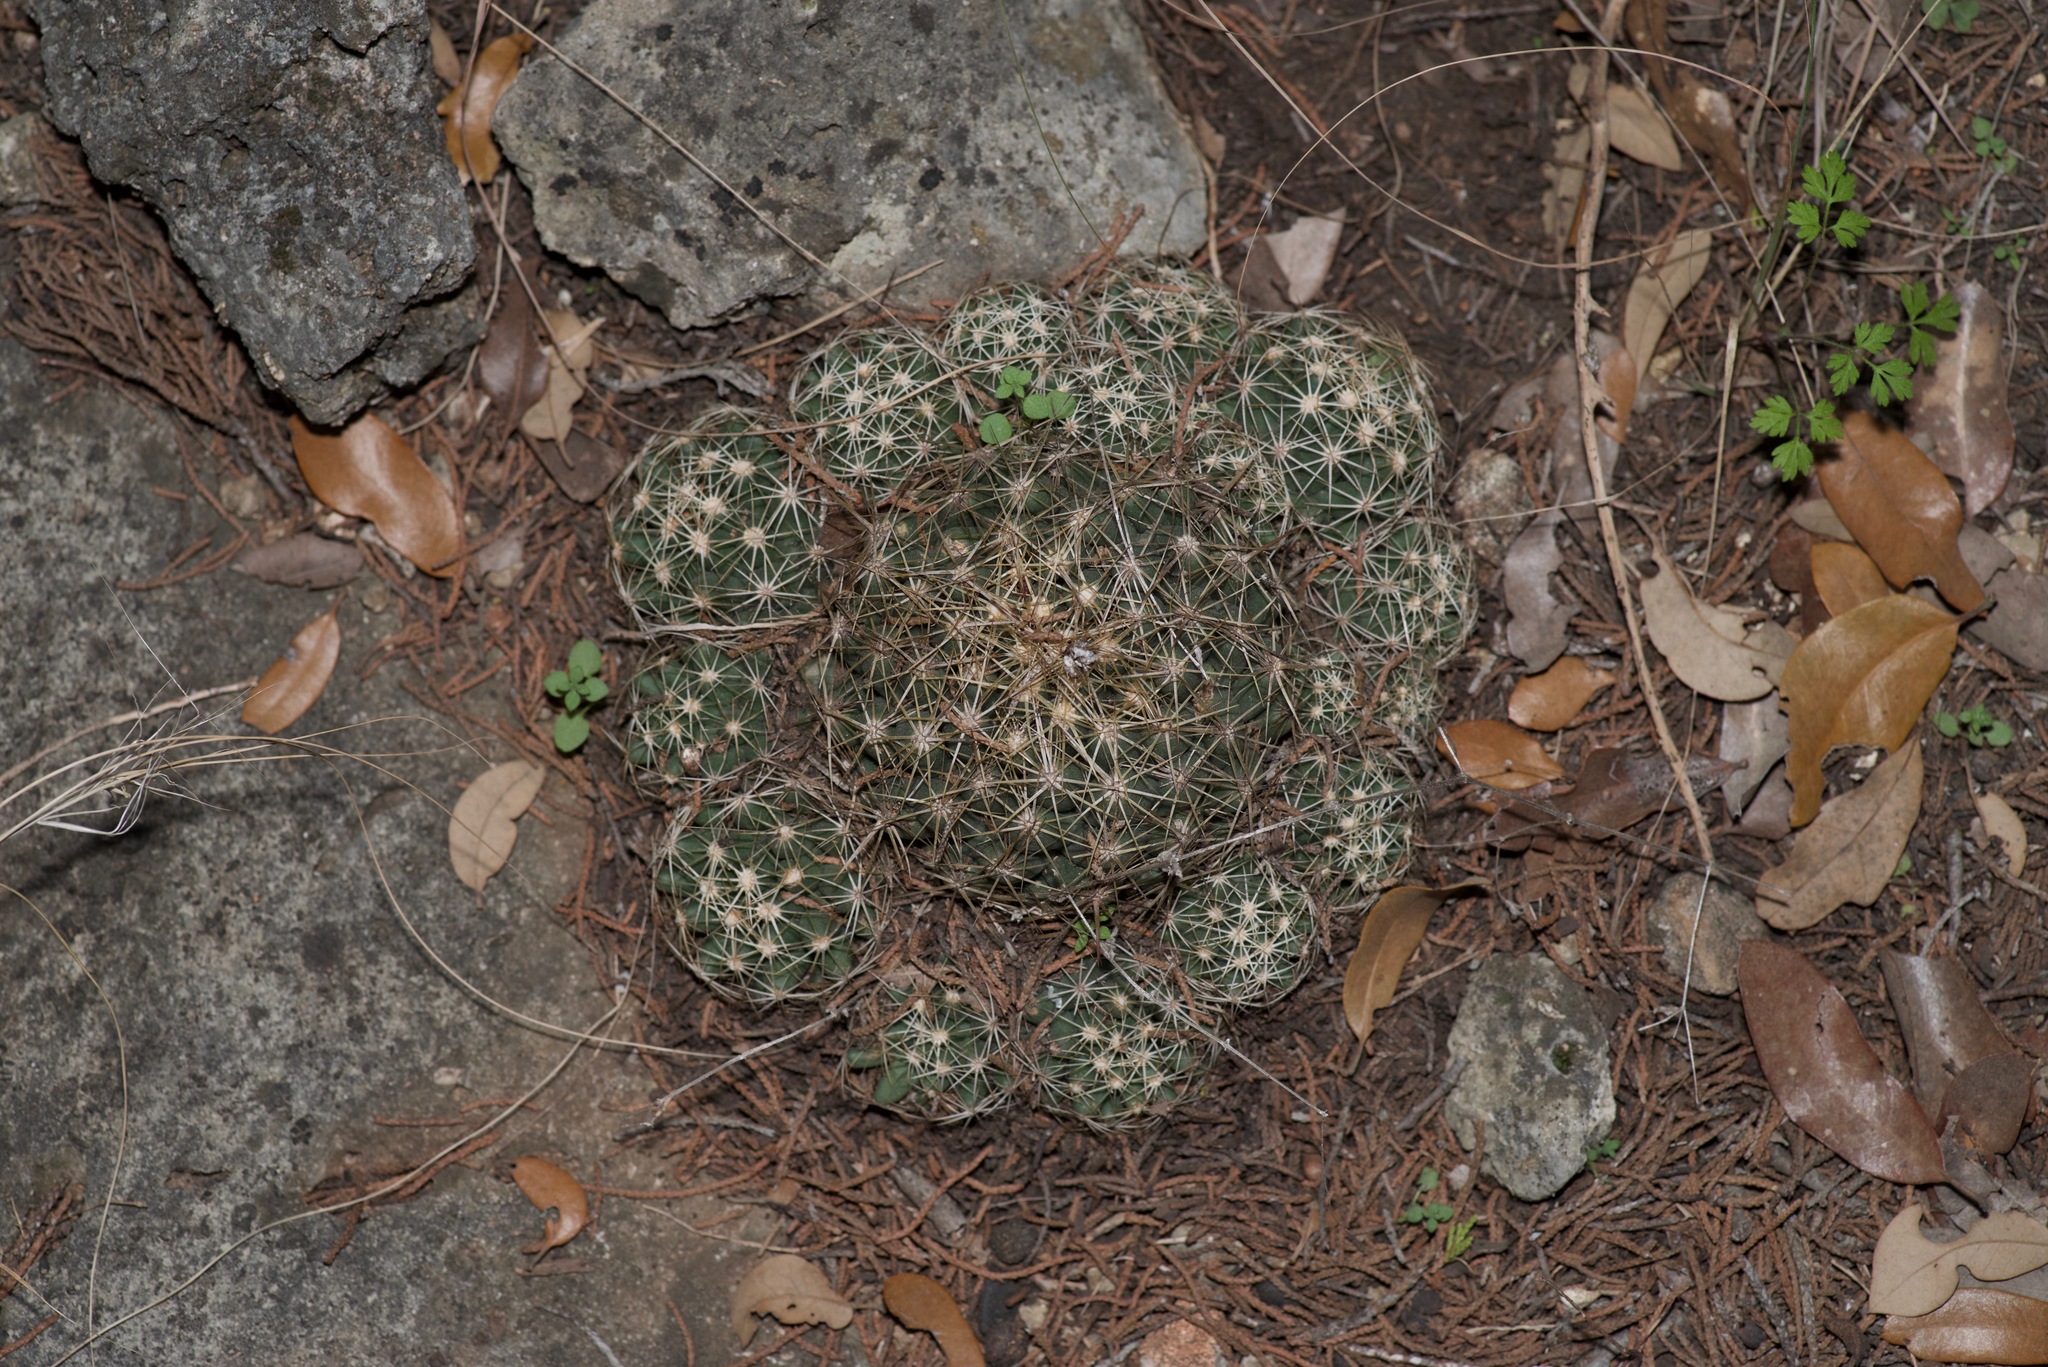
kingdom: Plantae
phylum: Tracheophyta
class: Magnoliopsida
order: Caryophyllales
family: Cactaceae
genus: Coryphantha
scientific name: Coryphantha sulcata
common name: Finger cactus
